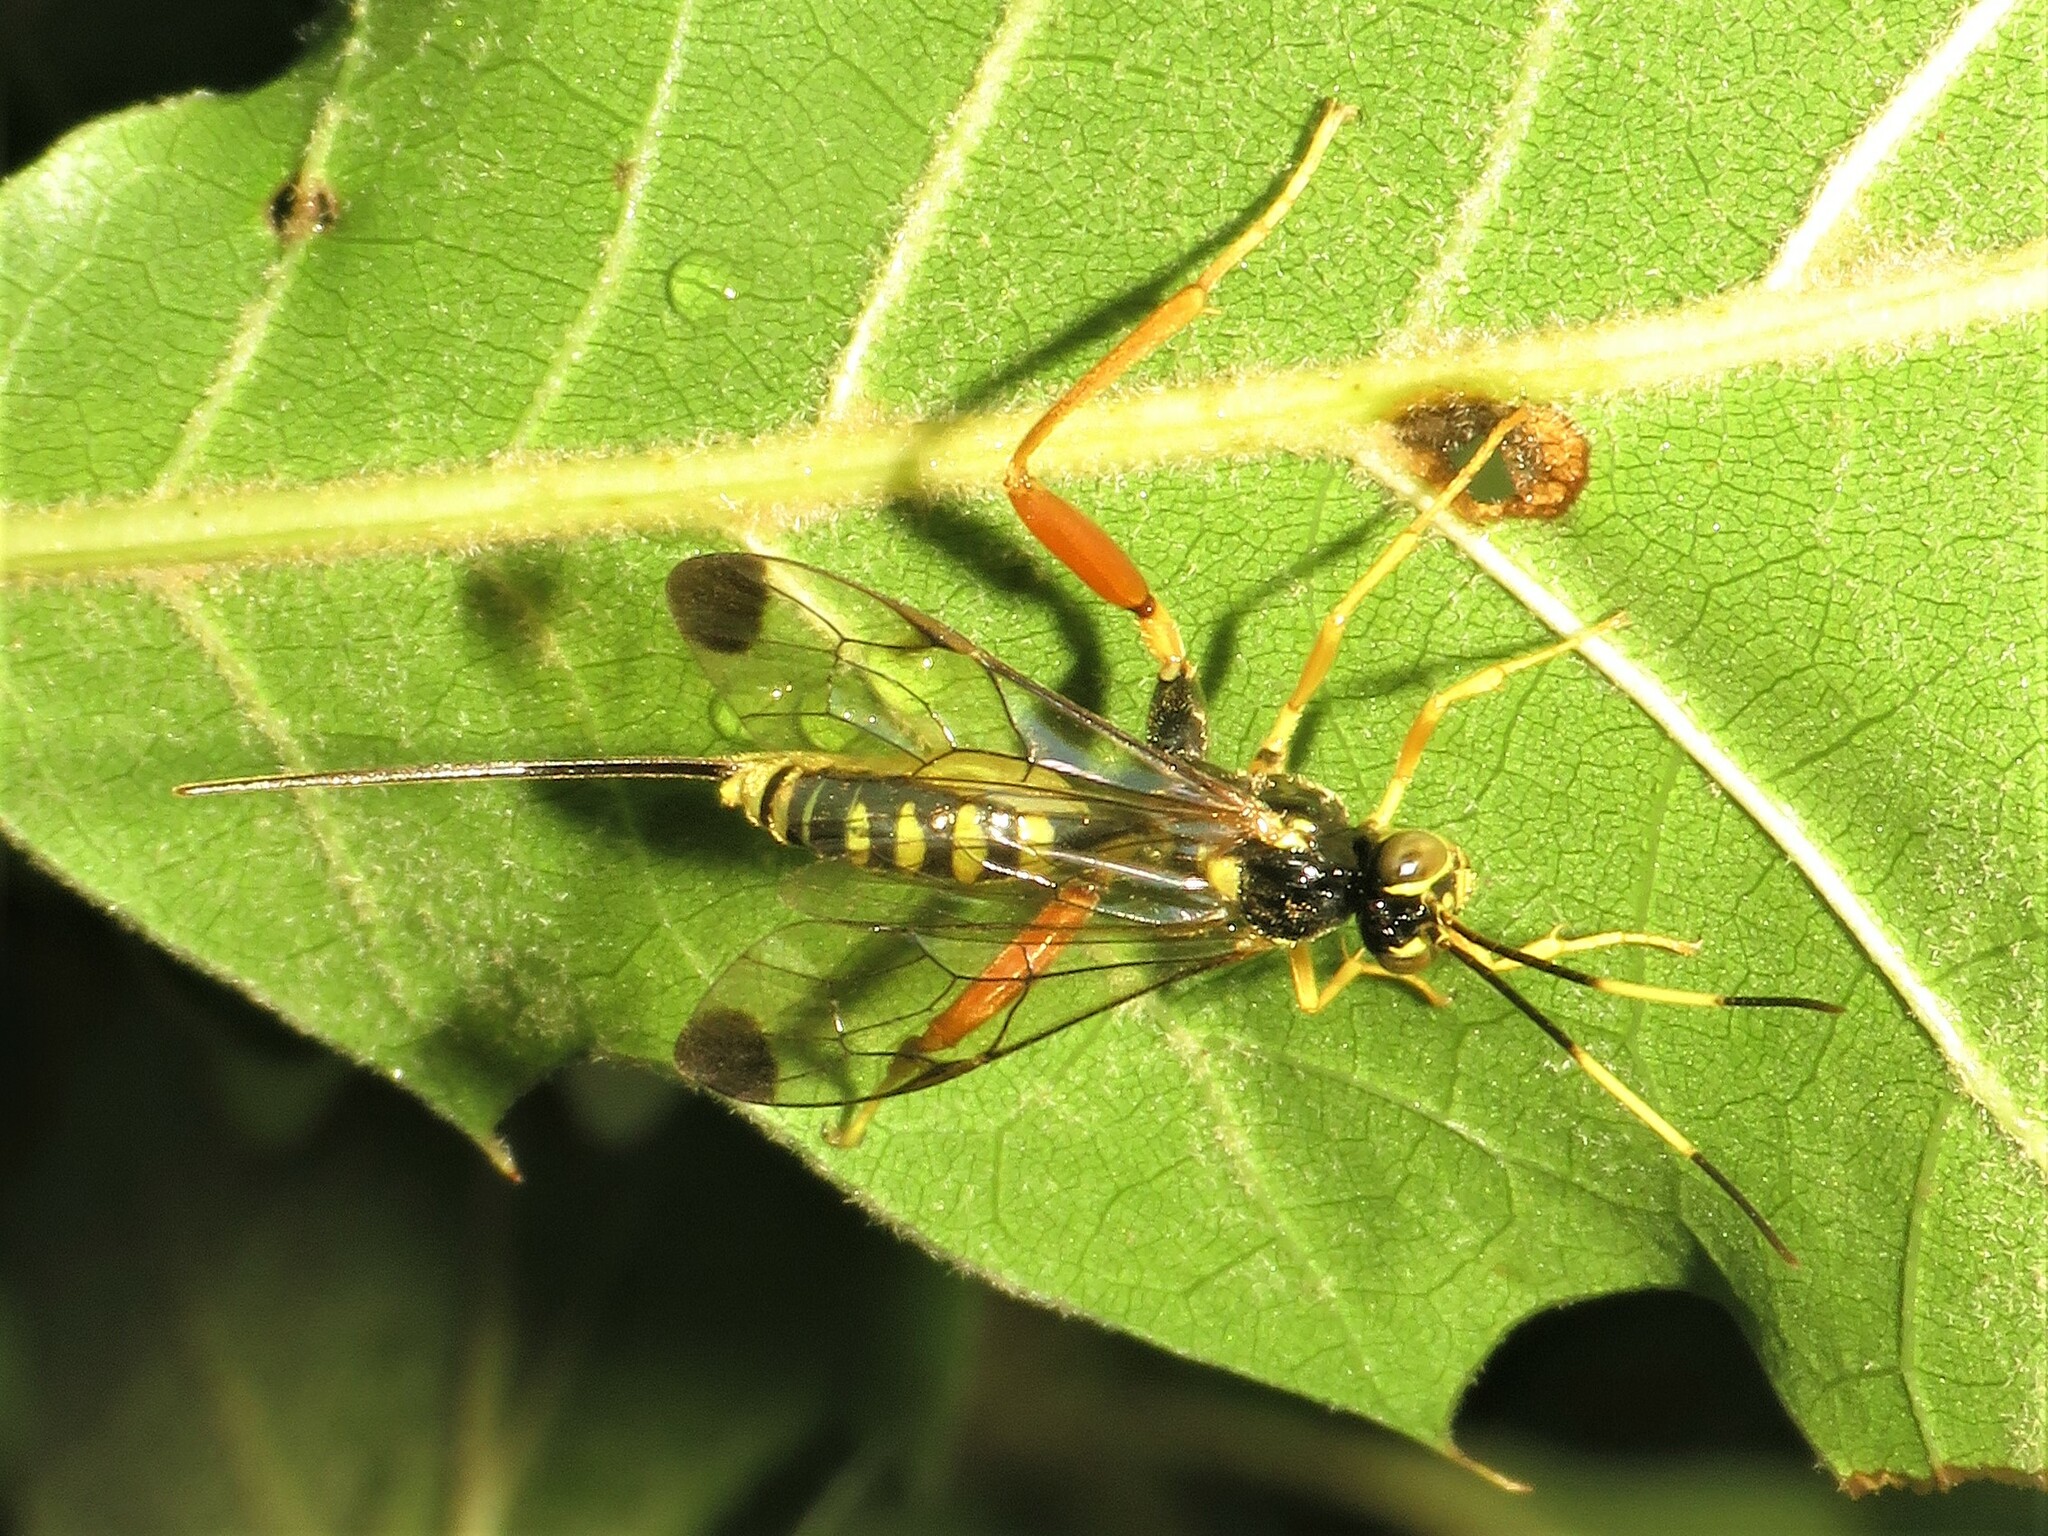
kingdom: Animalia
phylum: Arthropoda
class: Insecta
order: Hymenoptera
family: Ichneumonidae
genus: Spilopteron
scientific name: Spilopteron occiputale
